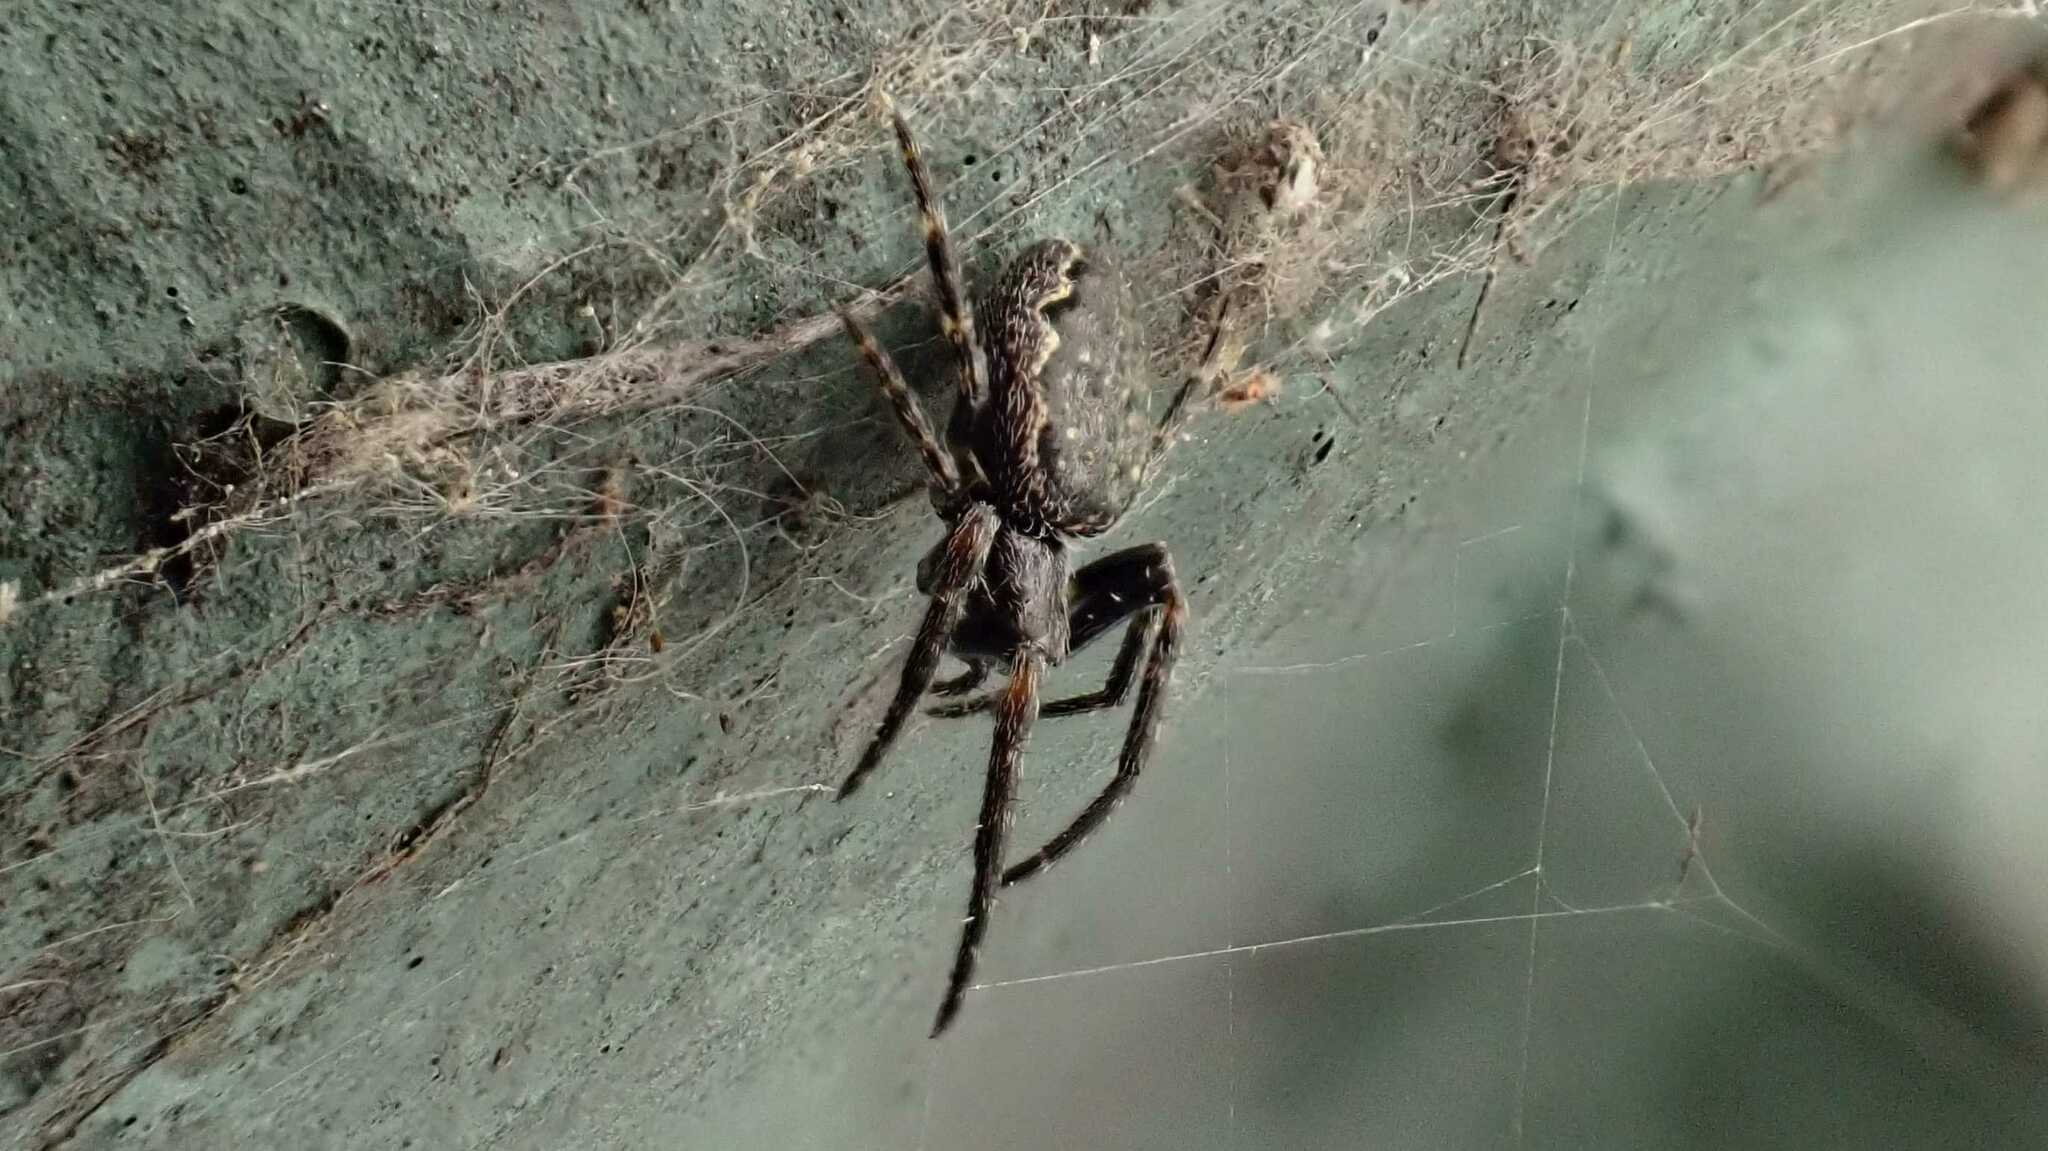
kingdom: Animalia
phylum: Arthropoda
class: Arachnida
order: Araneae
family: Araneidae
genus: Nuctenea
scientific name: Nuctenea umbratica
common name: Toad spider
